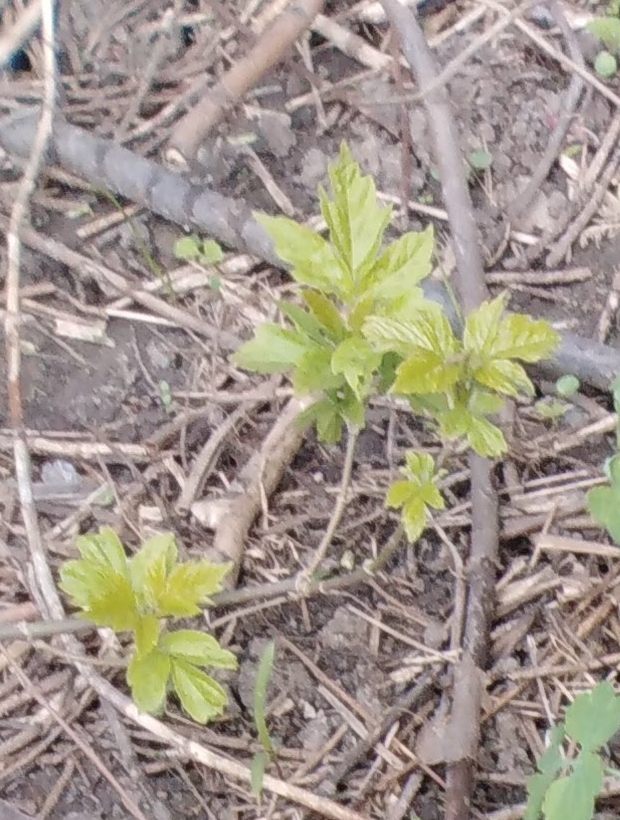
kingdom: Plantae
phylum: Tracheophyta
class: Magnoliopsida
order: Sapindales
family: Sapindaceae
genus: Acer
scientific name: Acer negundo
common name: Ashleaf maple
